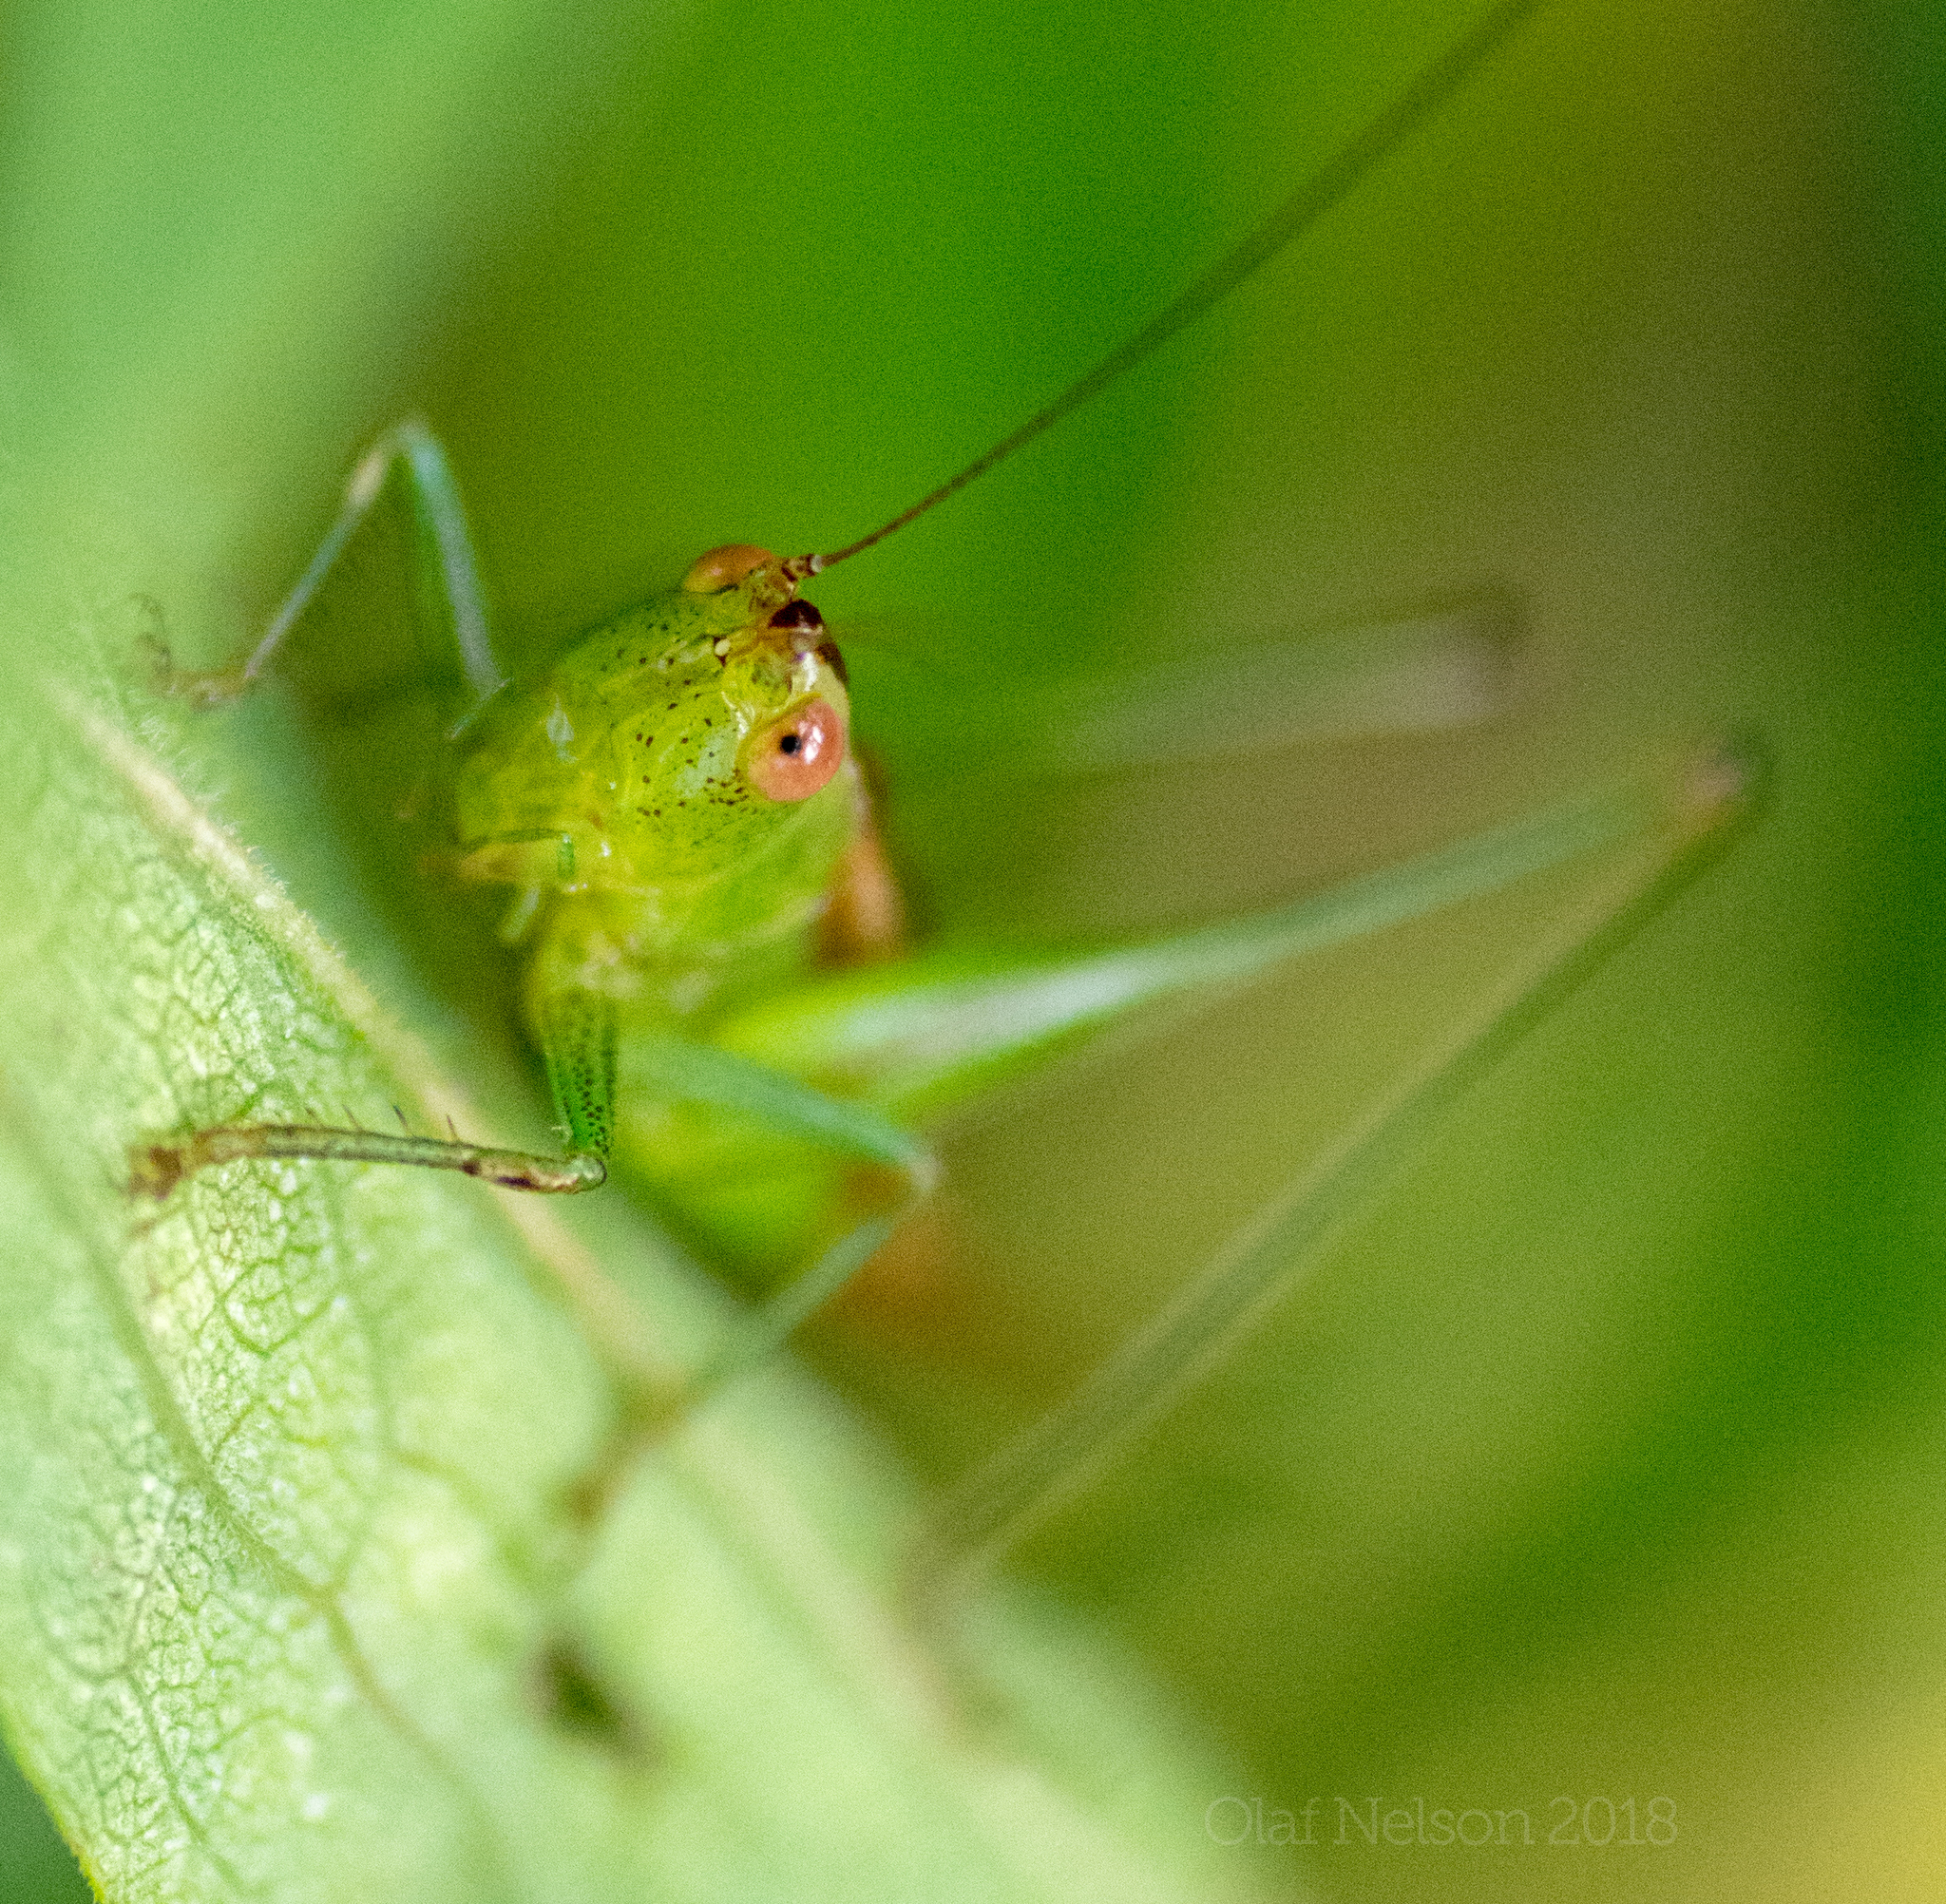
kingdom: Animalia
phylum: Arthropoda
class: Insecta
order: Orthoptera
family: Tettigoniidae
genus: Conocephalus
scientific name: Conocephalus brevipennis
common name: Short-winged meadow katydid
